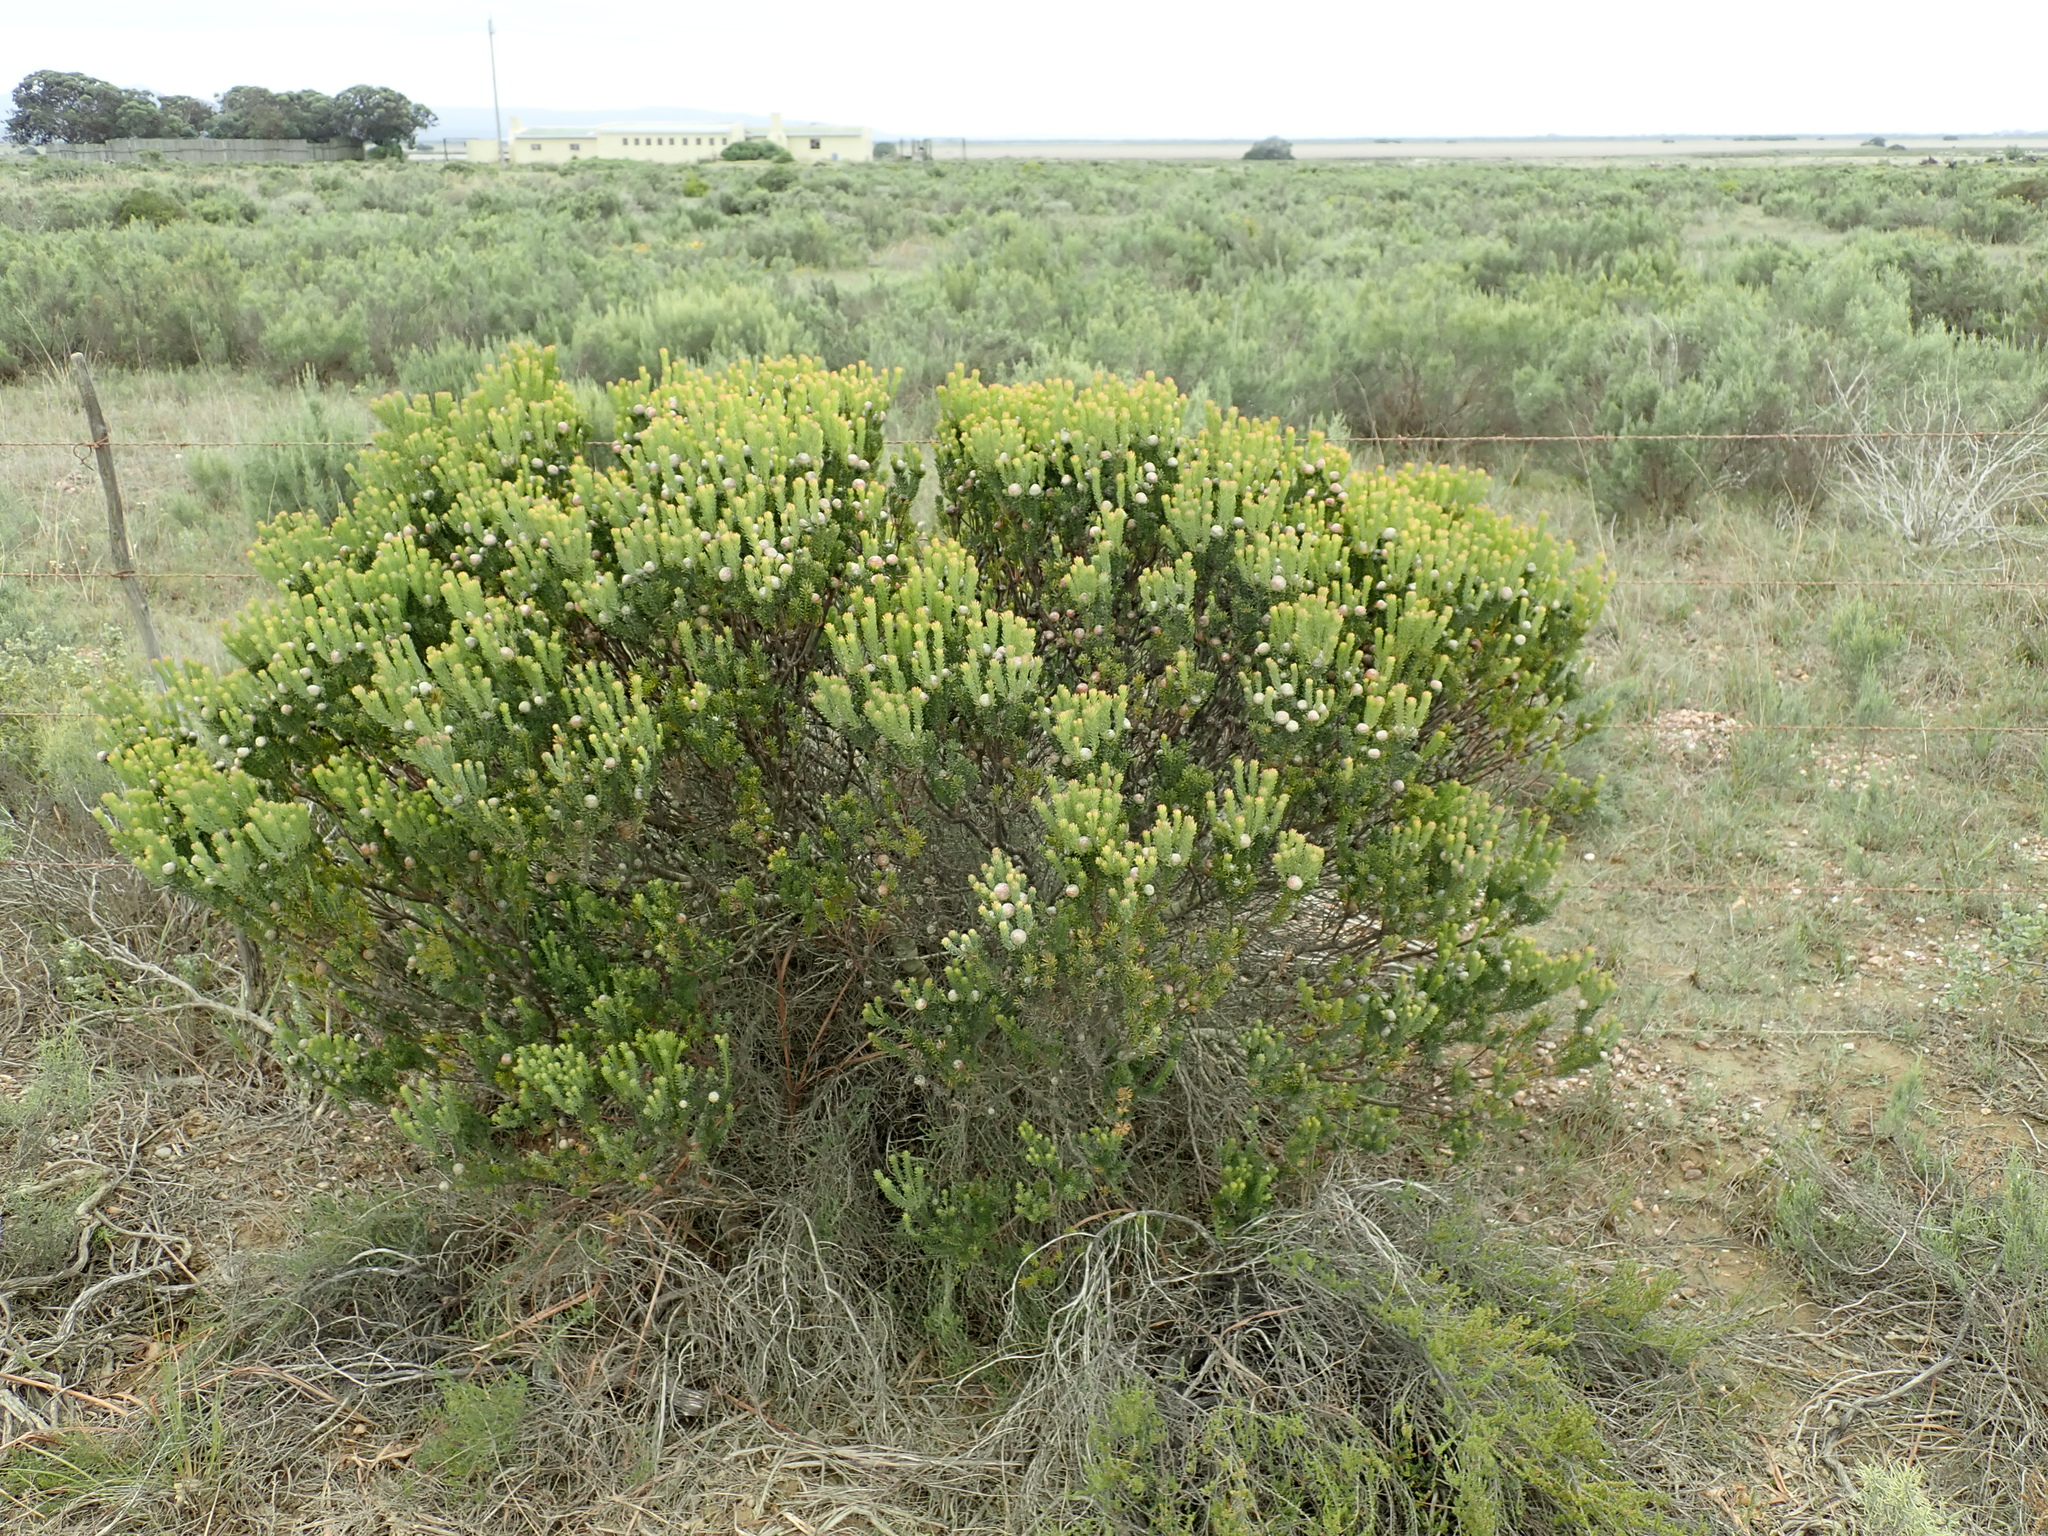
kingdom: Plantae
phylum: Tracheophyta
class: Magnoliopsida
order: Proteales
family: Proteaceae
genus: Leucadendron
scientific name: Leucadendron linifolium
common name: Line-leaf conebush
